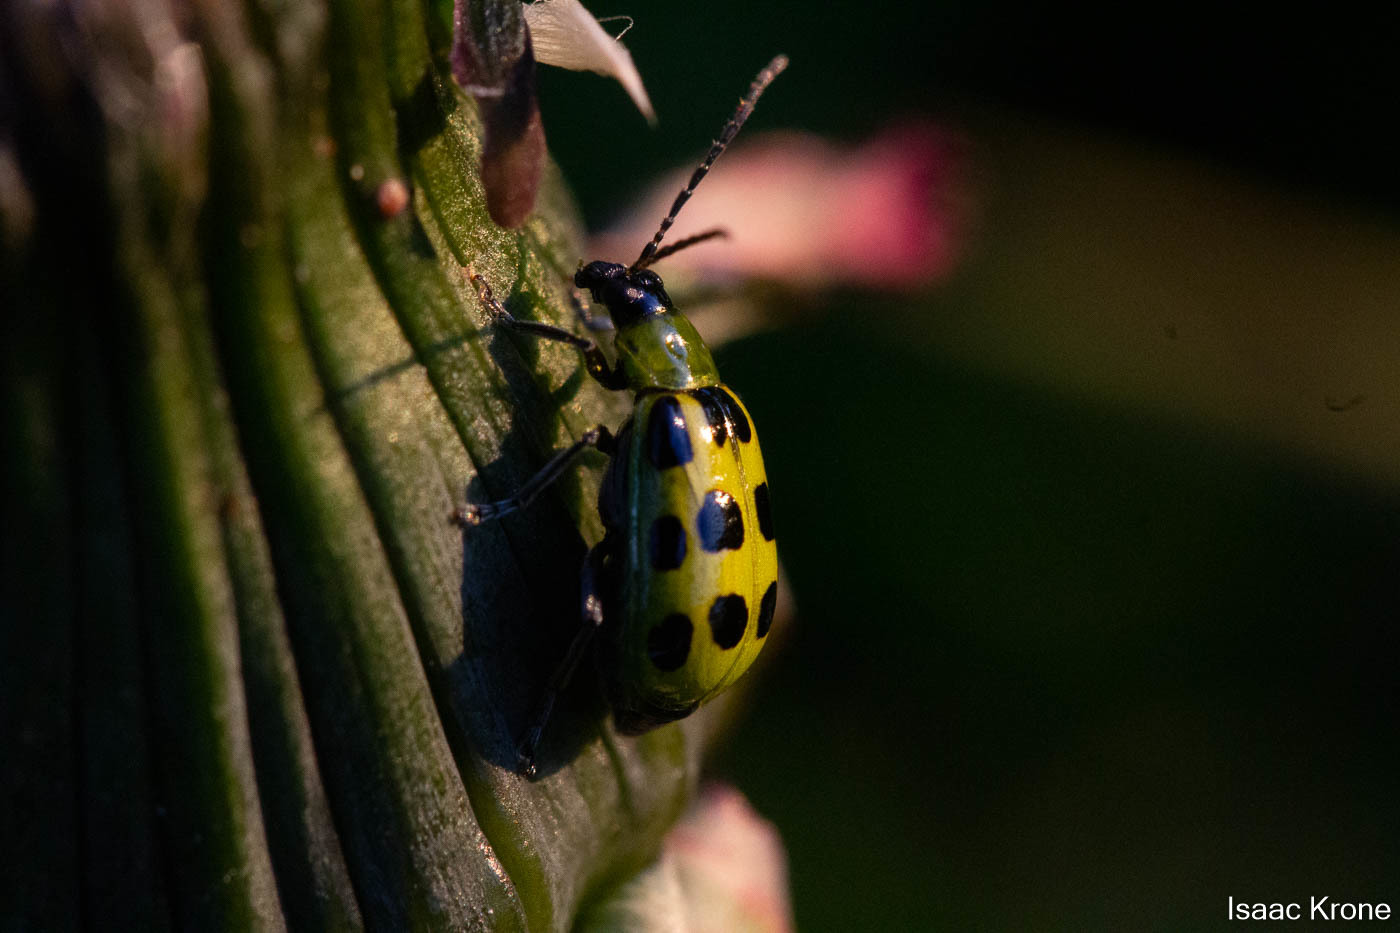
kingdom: Animalia
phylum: Arthropoda
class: Insecta
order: Coleoptera
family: Chrysomelidae
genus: Diabrotica
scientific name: Diabrotica undecimpunctata
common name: Spotted cucumber beetle
